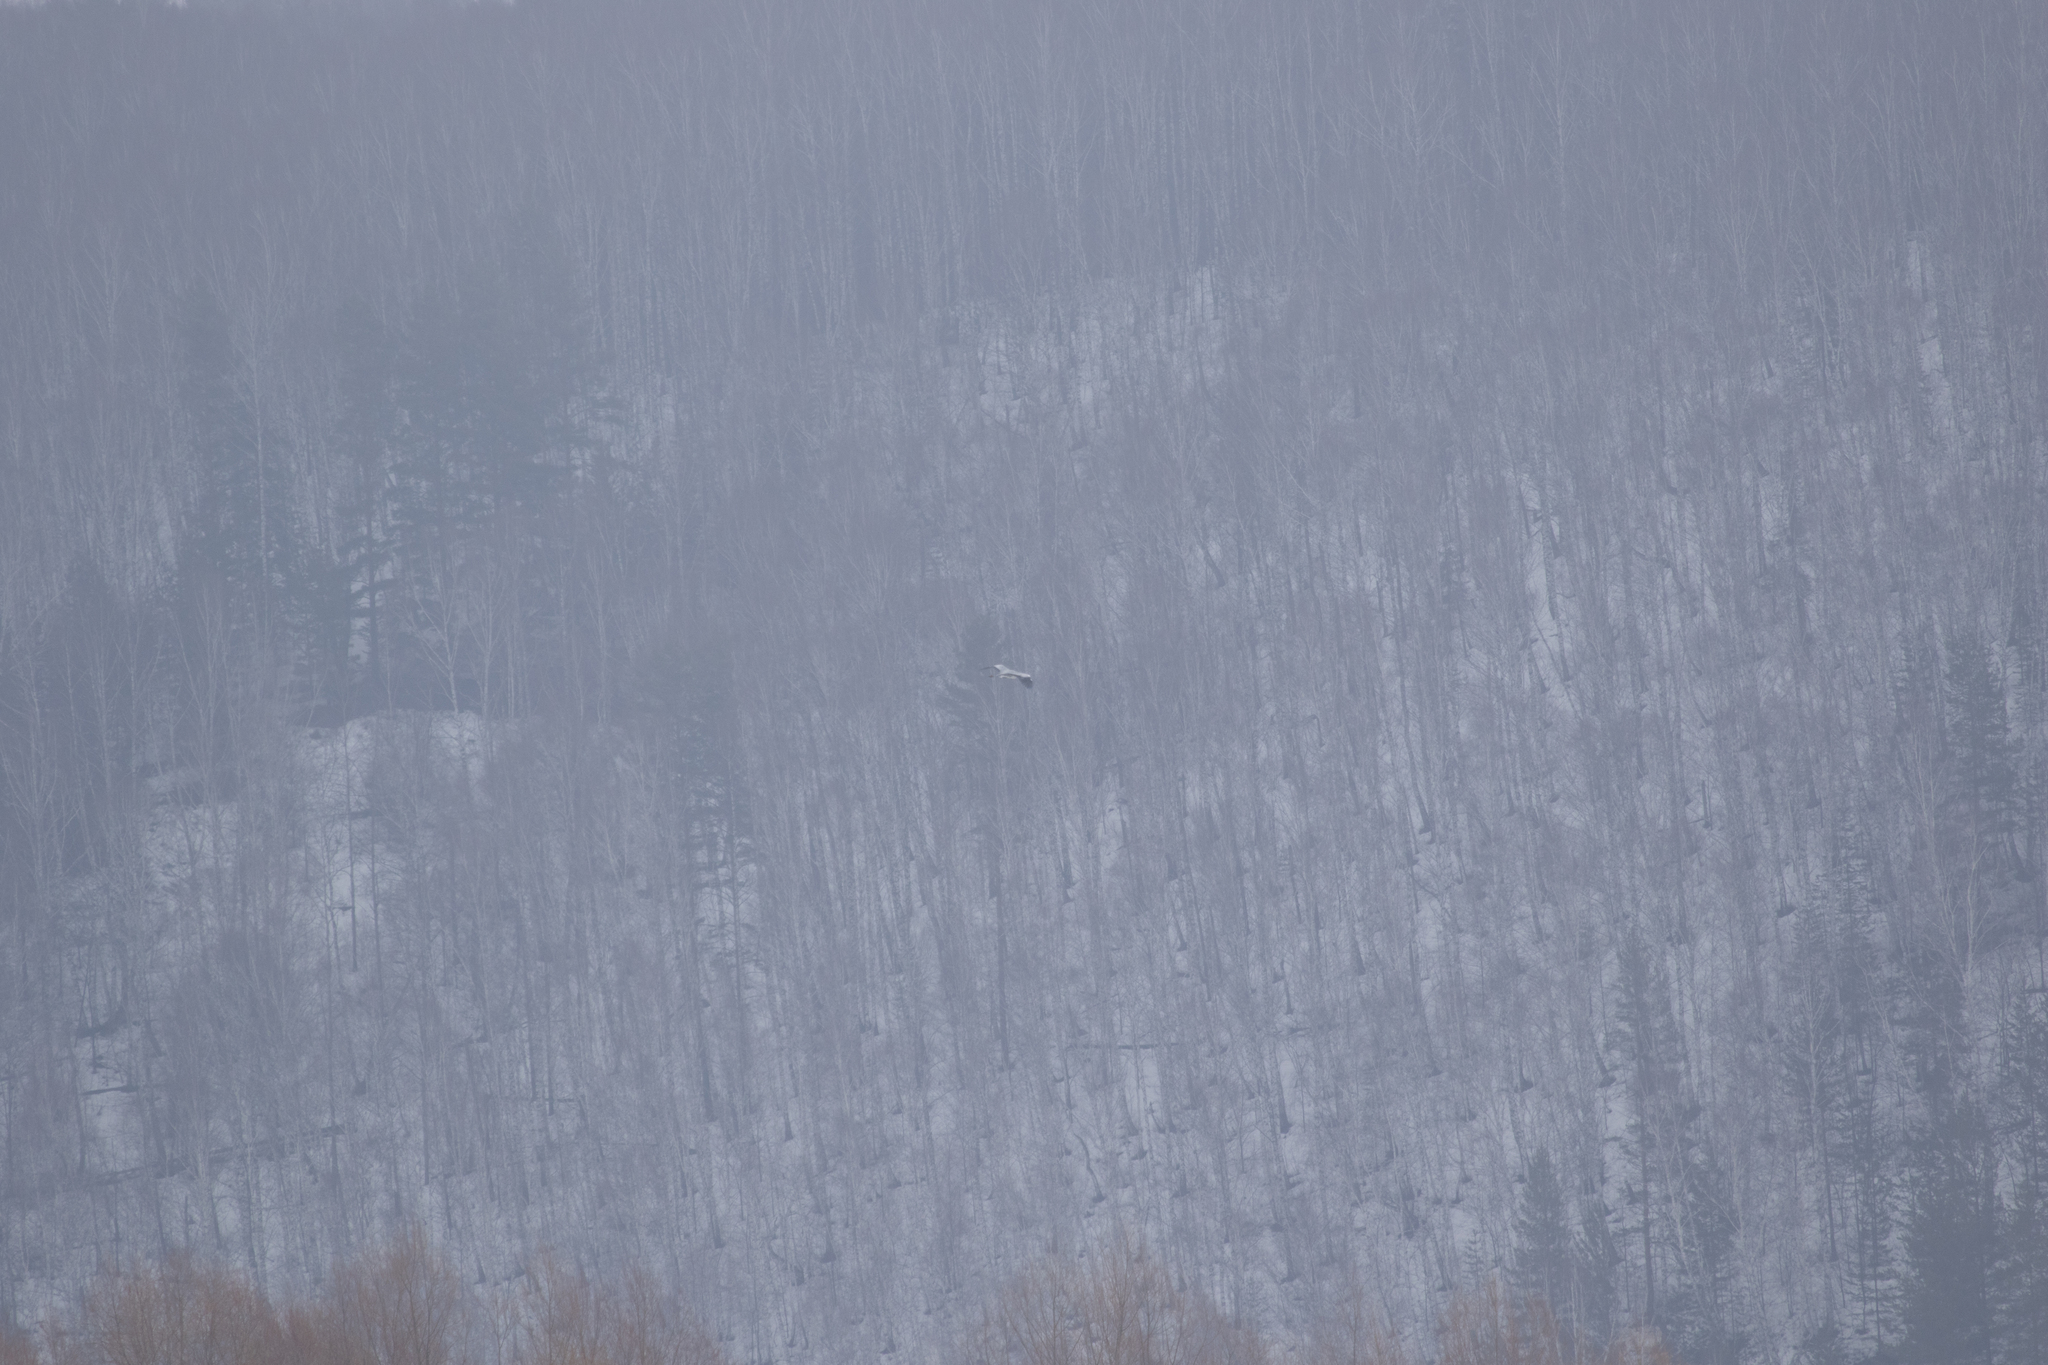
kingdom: Animalia
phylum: Chordata
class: Aves
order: Pelecaniformes
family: Ardeidae
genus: Ardea
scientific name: Ardea cinerea
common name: Grey heron
